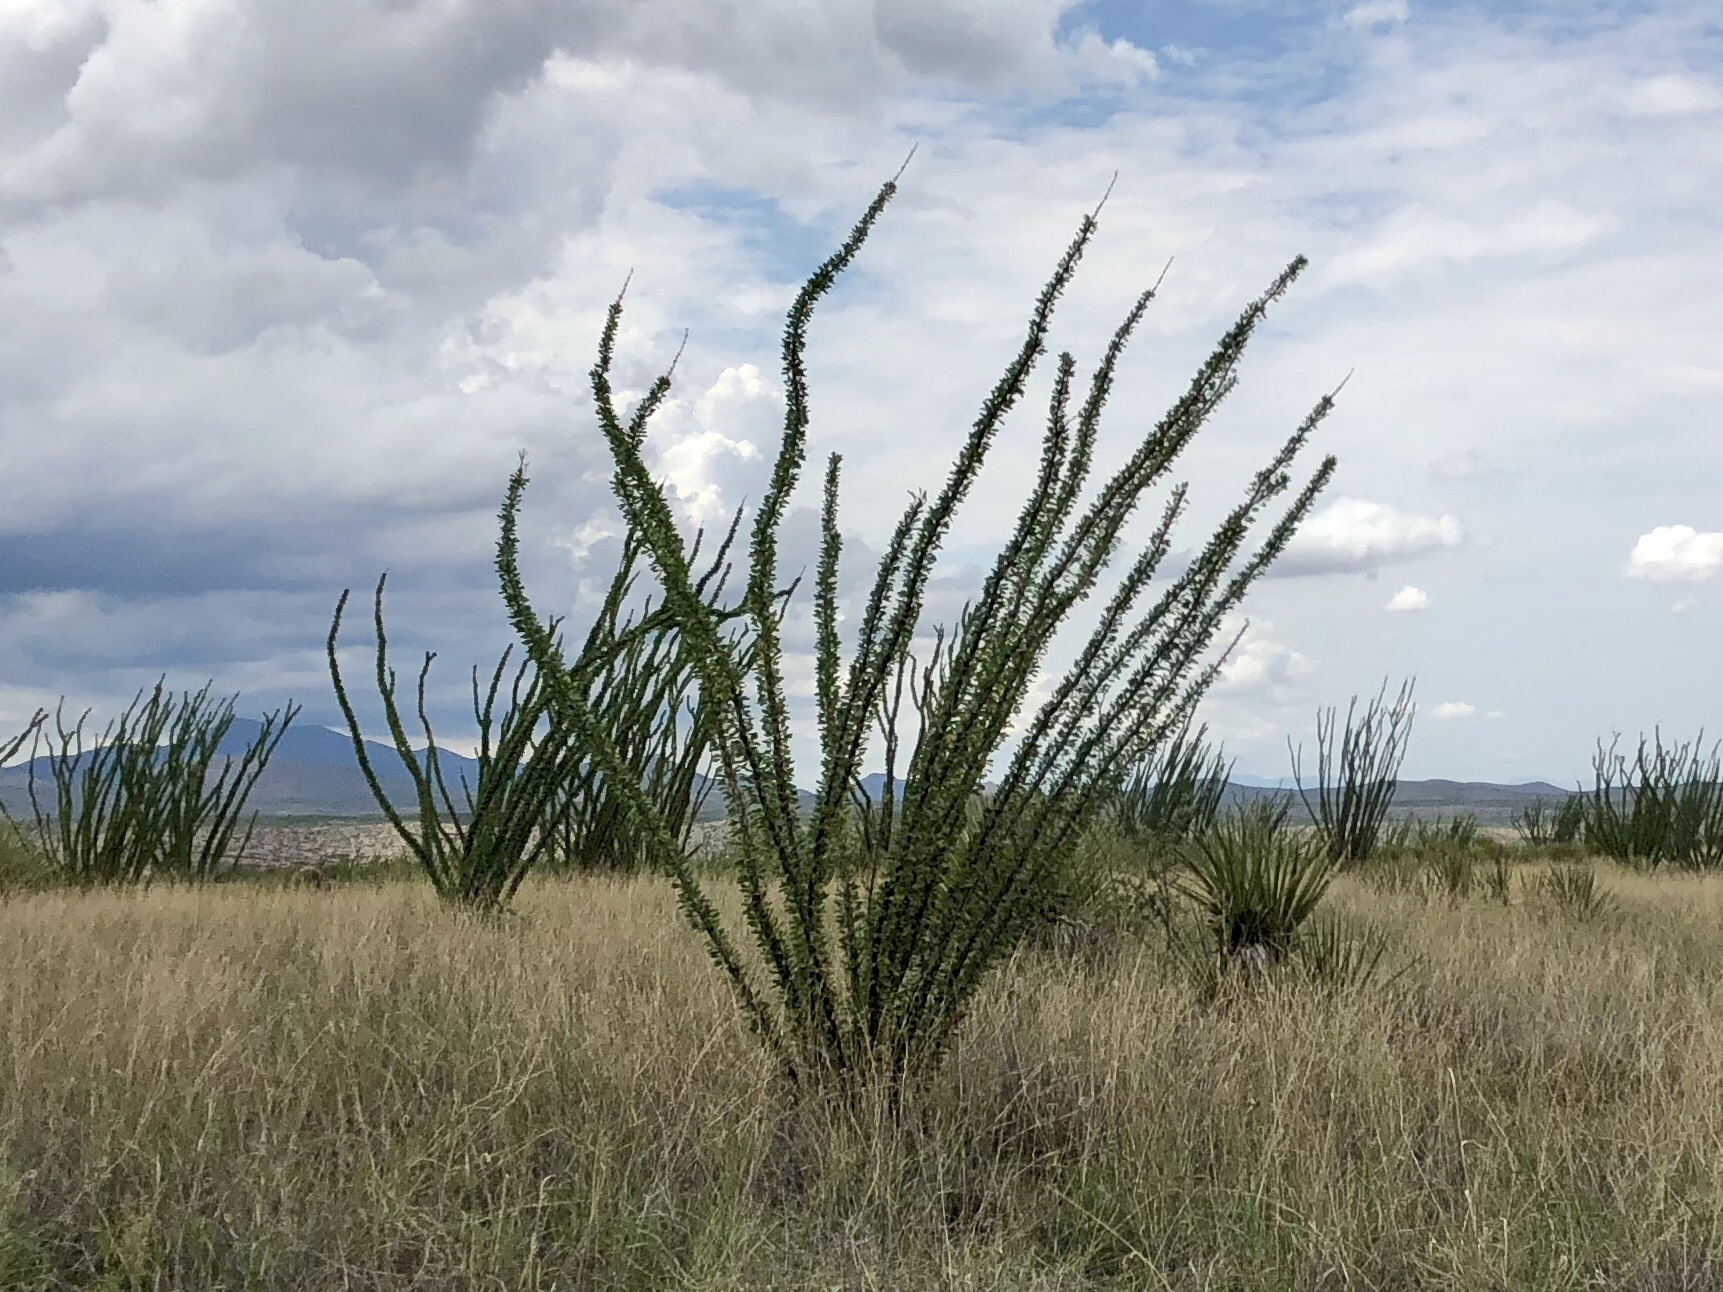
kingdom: Plantae
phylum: Tracheophyta
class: Magnoliopsida
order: Ericales
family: Fouquieriaceae
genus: Fouquieria
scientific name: Fouquieria splendens
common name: Vine-cactus
